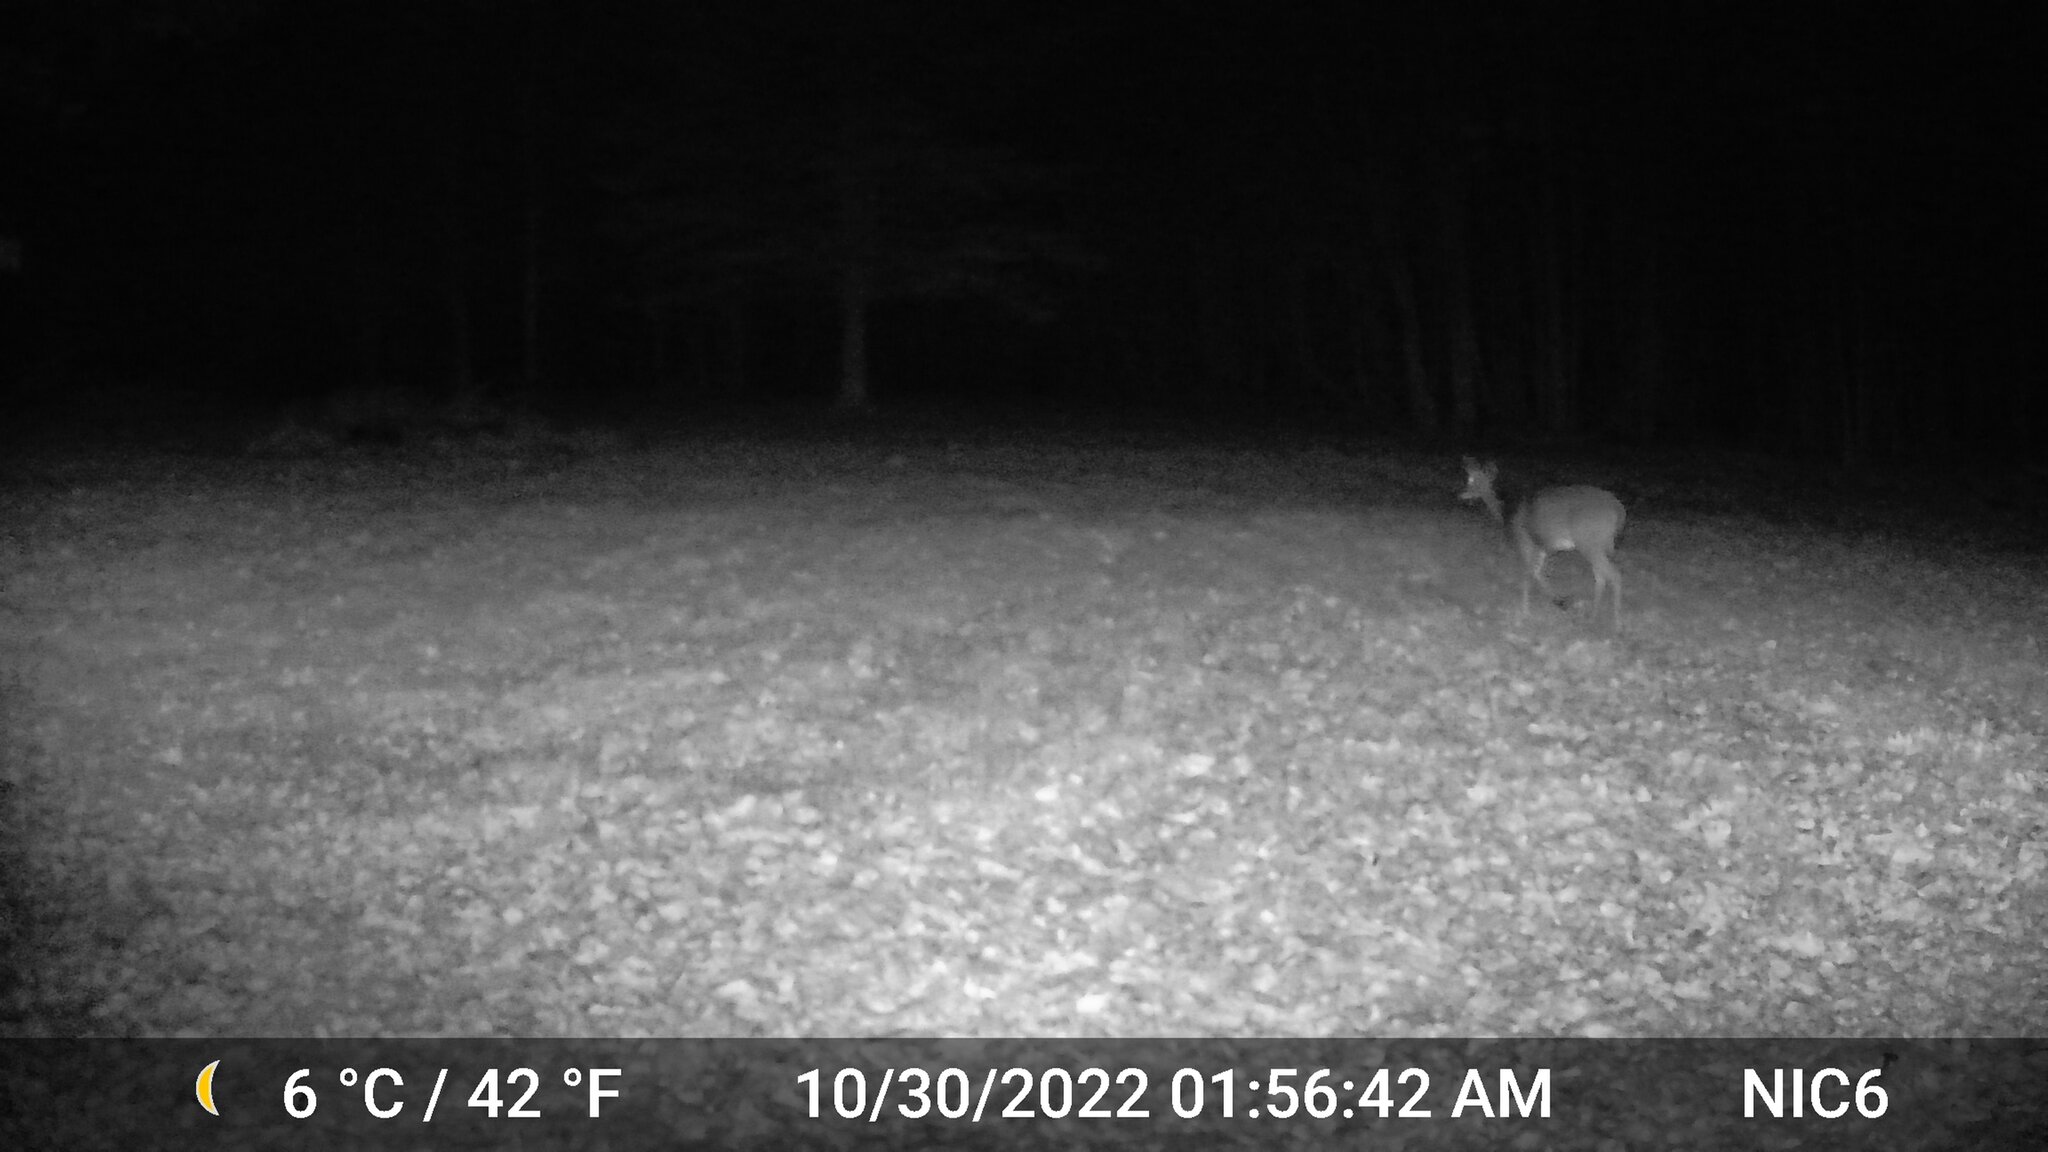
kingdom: Animalia
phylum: Chordata
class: Mammalia
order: Artiodactyla
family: Cervidae
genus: Odocoileus
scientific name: Odocoileus virginianus
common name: White-tailed deer
